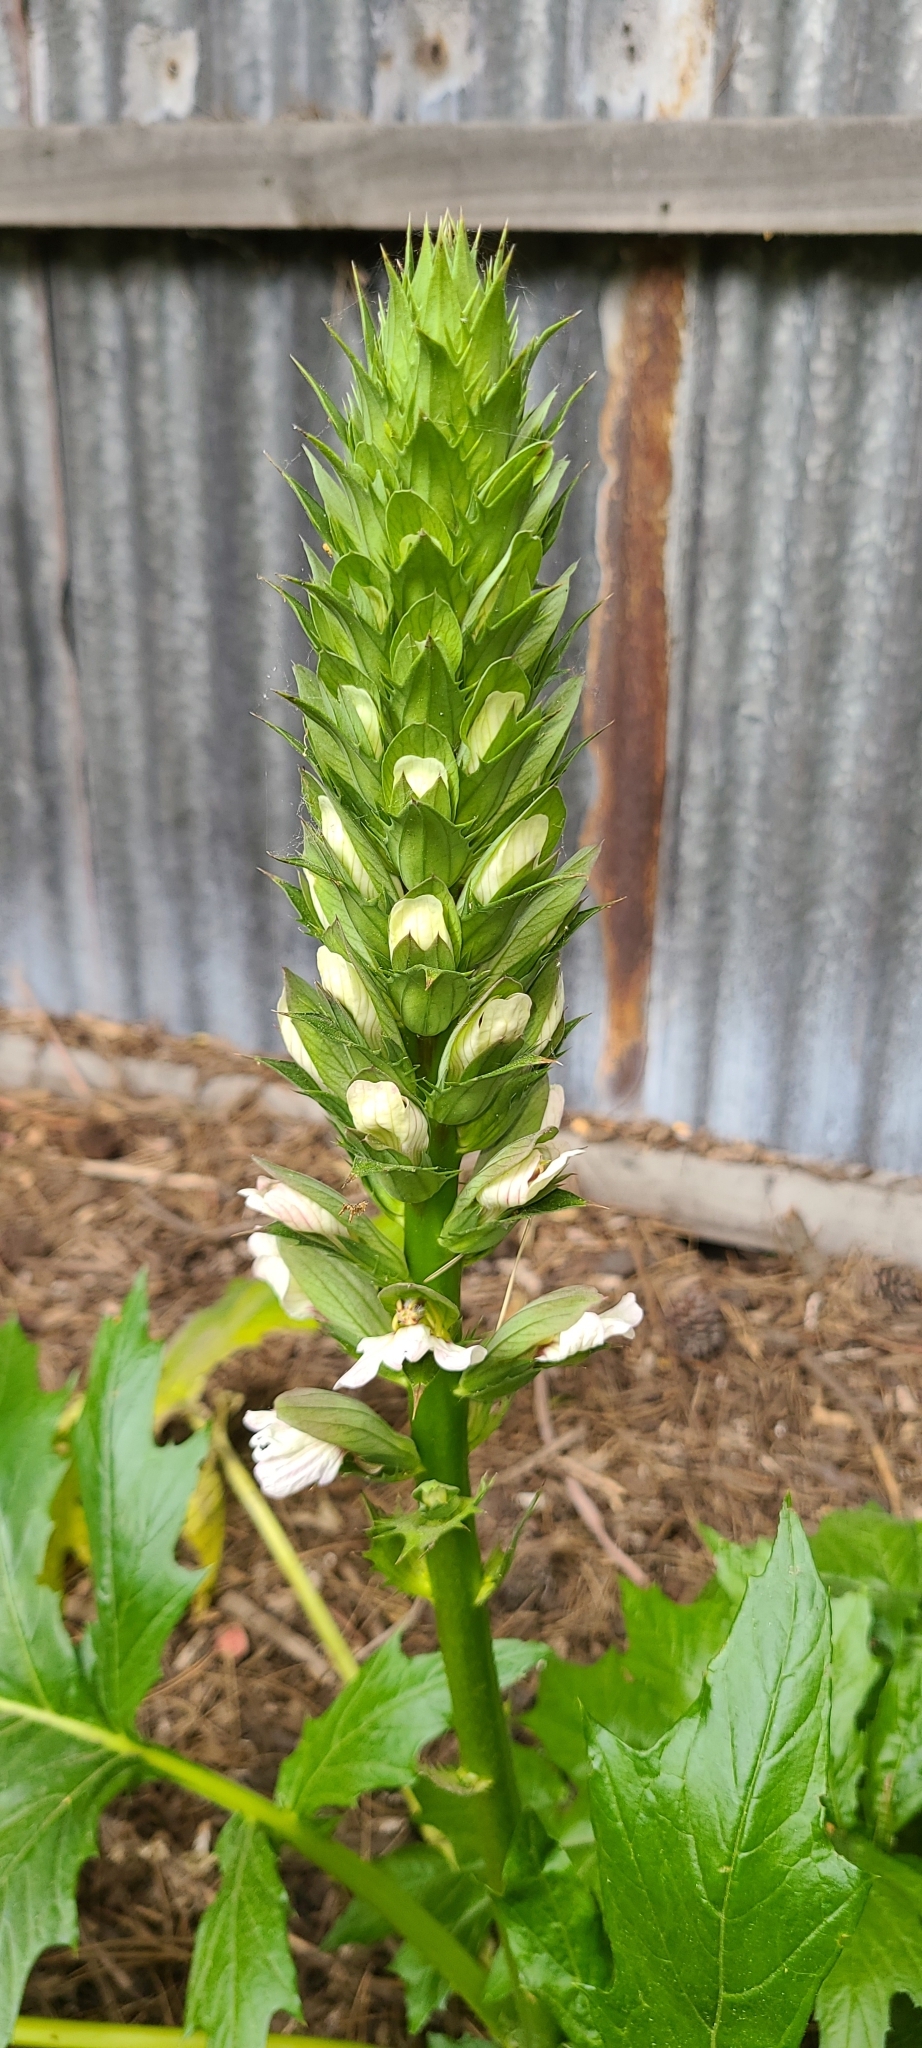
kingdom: Plantae
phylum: Tracheophyta
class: Magnoliopsida
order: Lamiales
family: Acanthaceae
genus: Acanthus
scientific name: Acanthus mollis
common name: Bear's-breech
